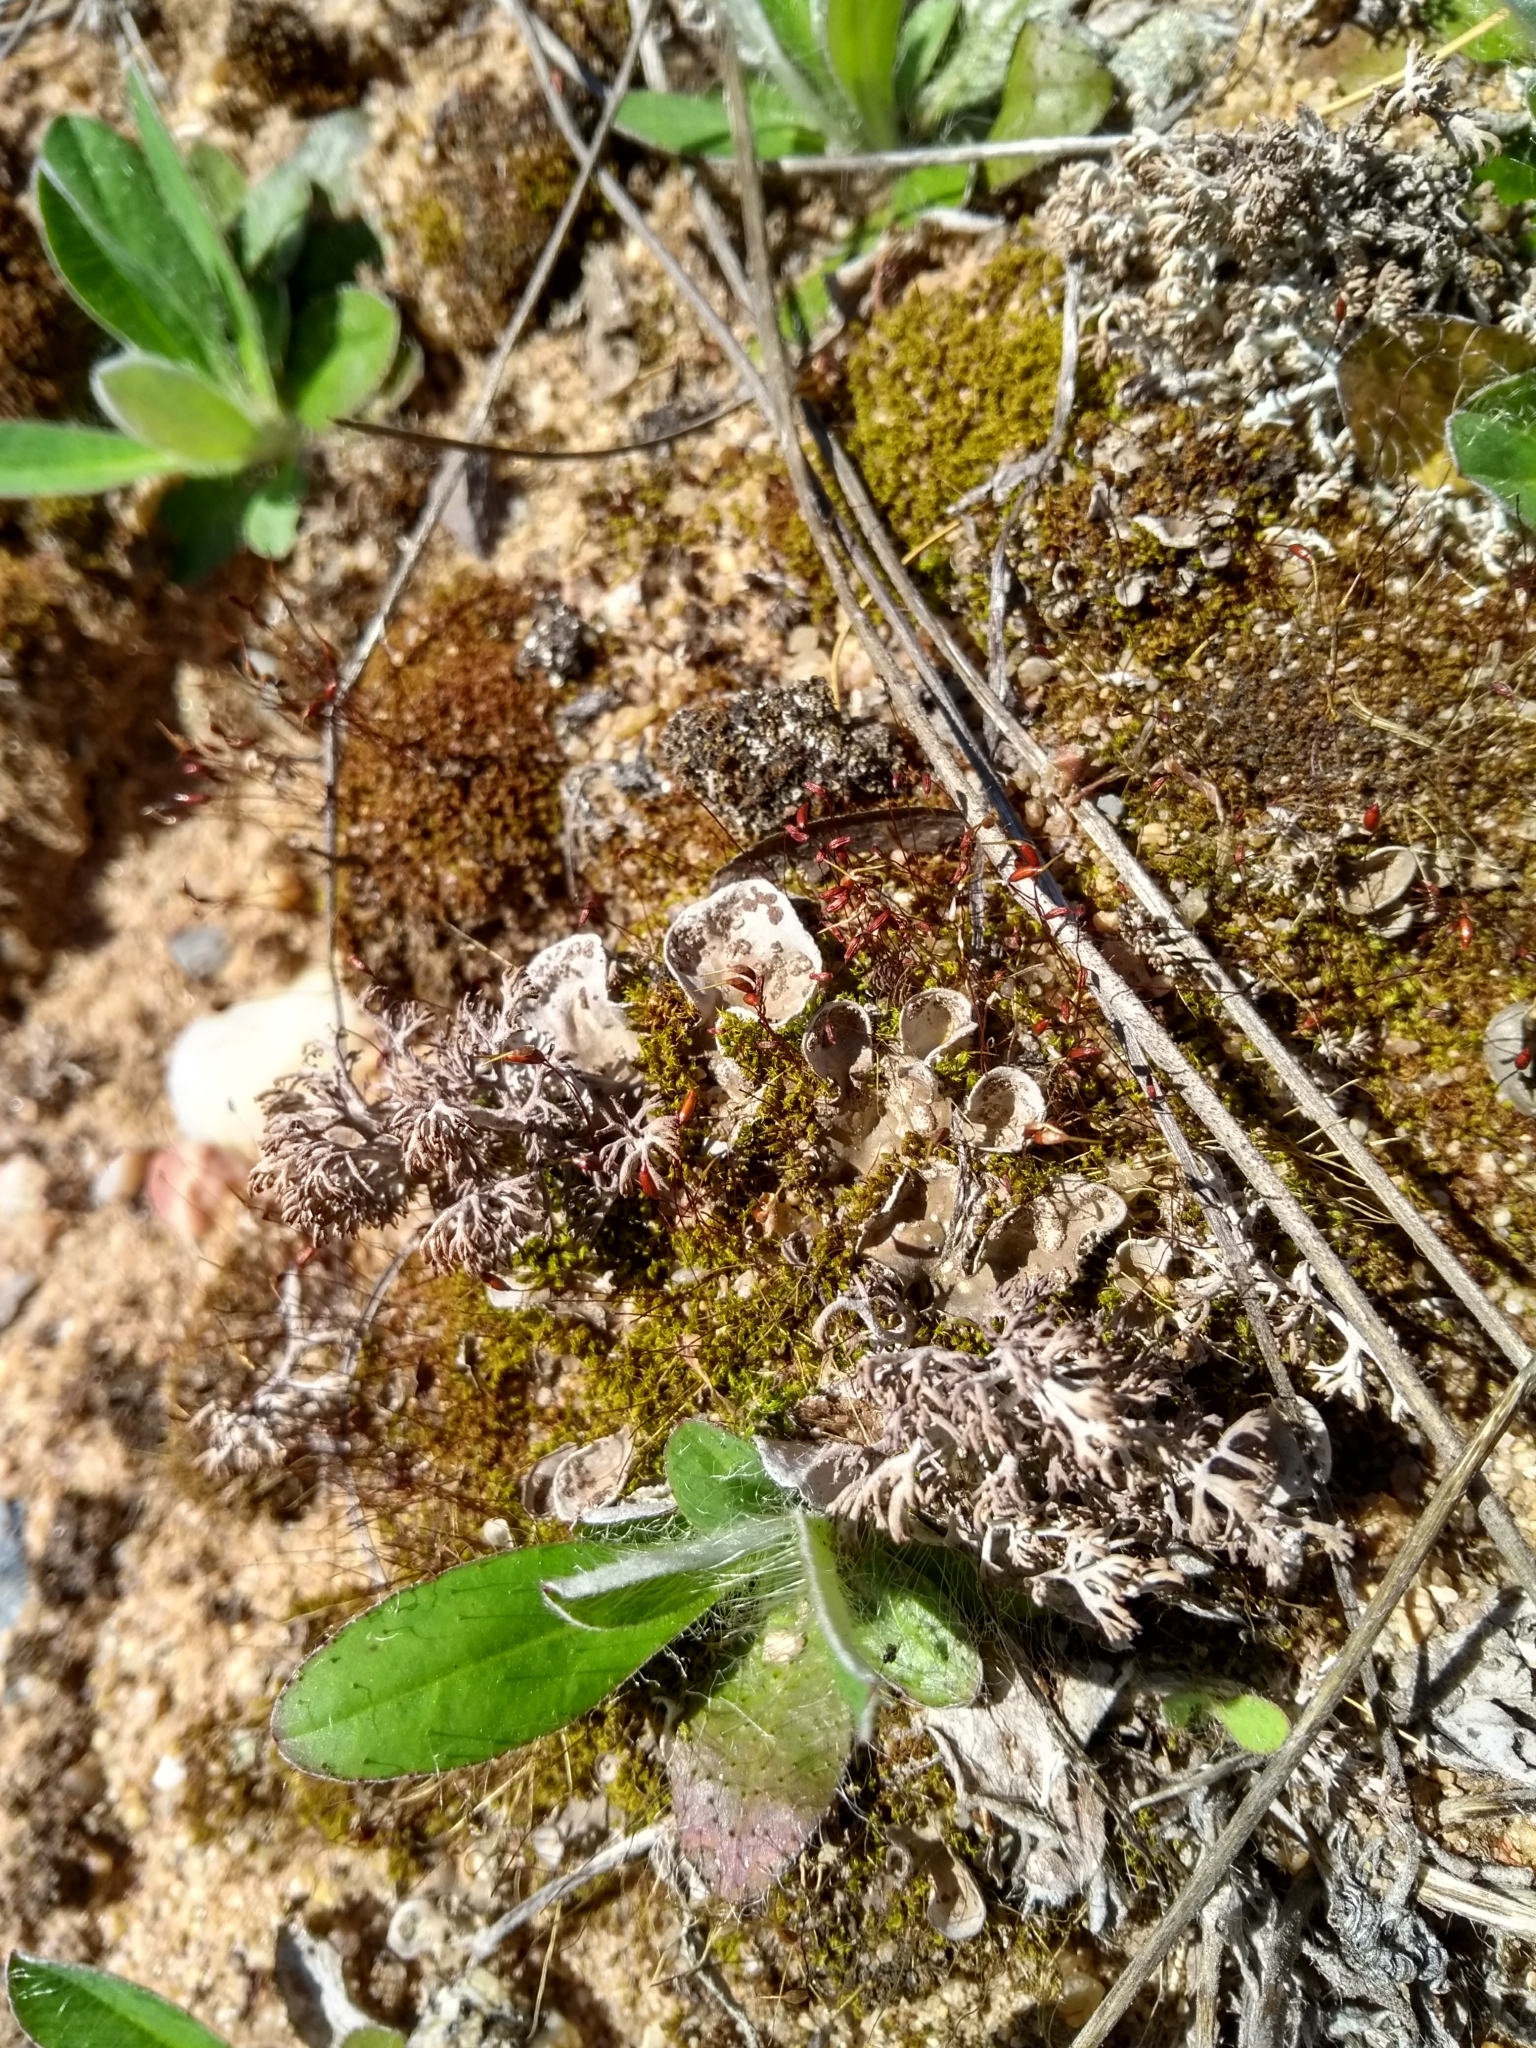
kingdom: Fungi
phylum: Ascomycota
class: Lecanoromycetes
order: Peltigerales
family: Peltigeraceae
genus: Peltigera
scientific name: Peltigera extenuata
